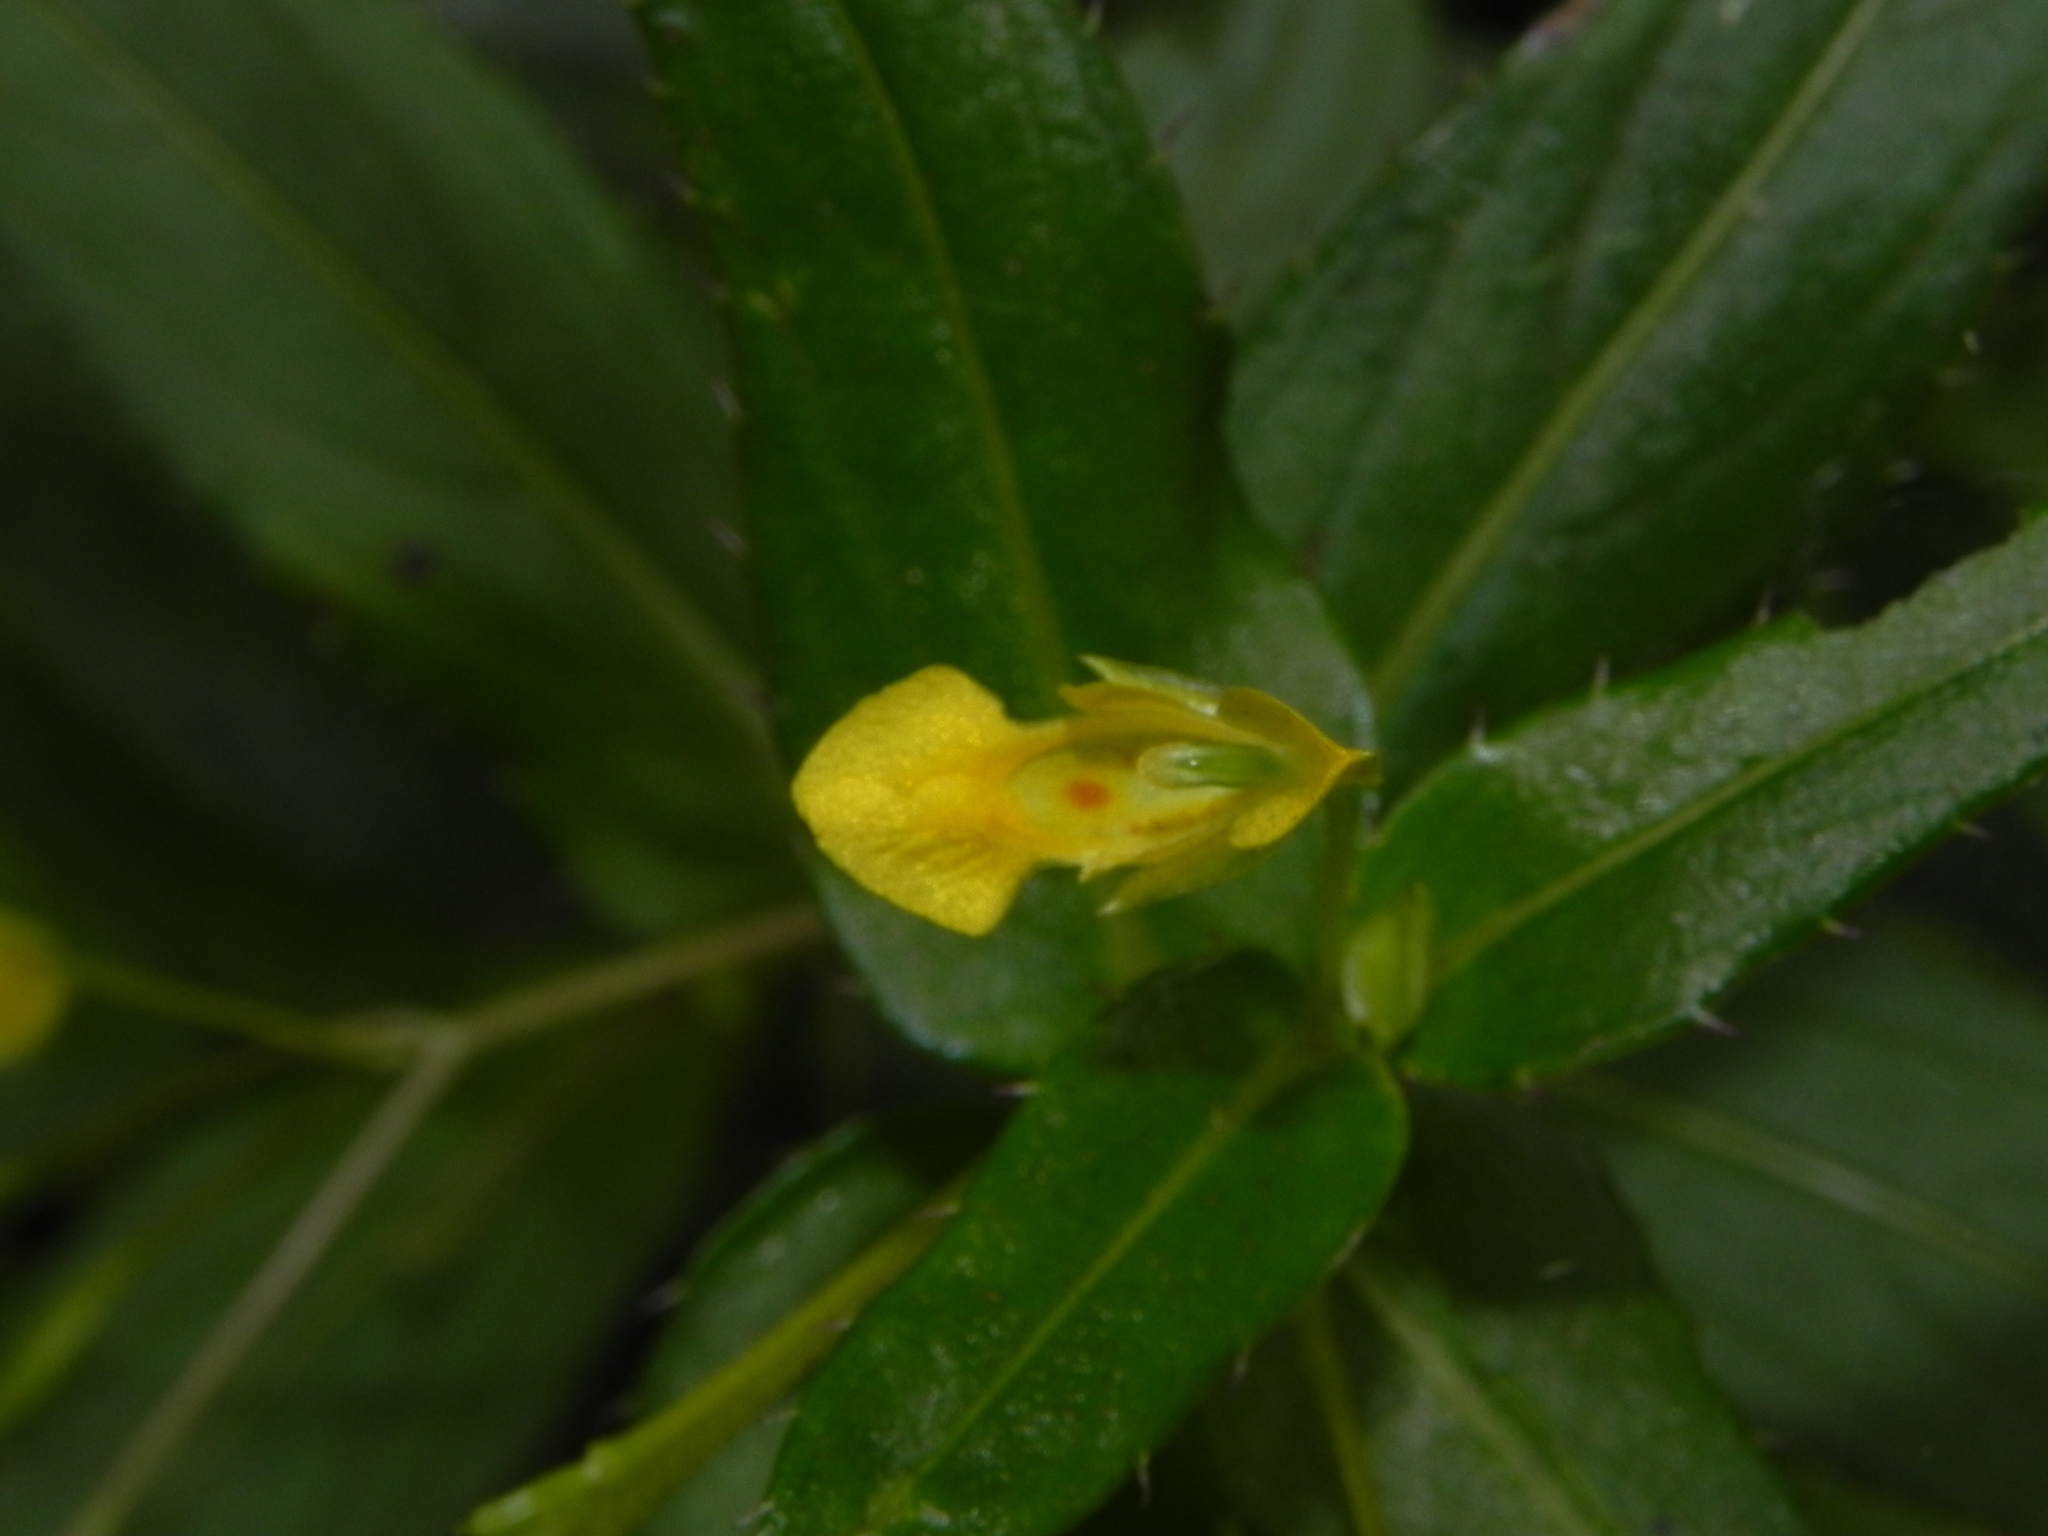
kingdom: Plantae
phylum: Tracheophyta
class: Magnoliopsida
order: Ericales
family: Balsaminaceae
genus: Impatiens
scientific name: Impatiens dalzellii
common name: Dalzell's yellow balsam
